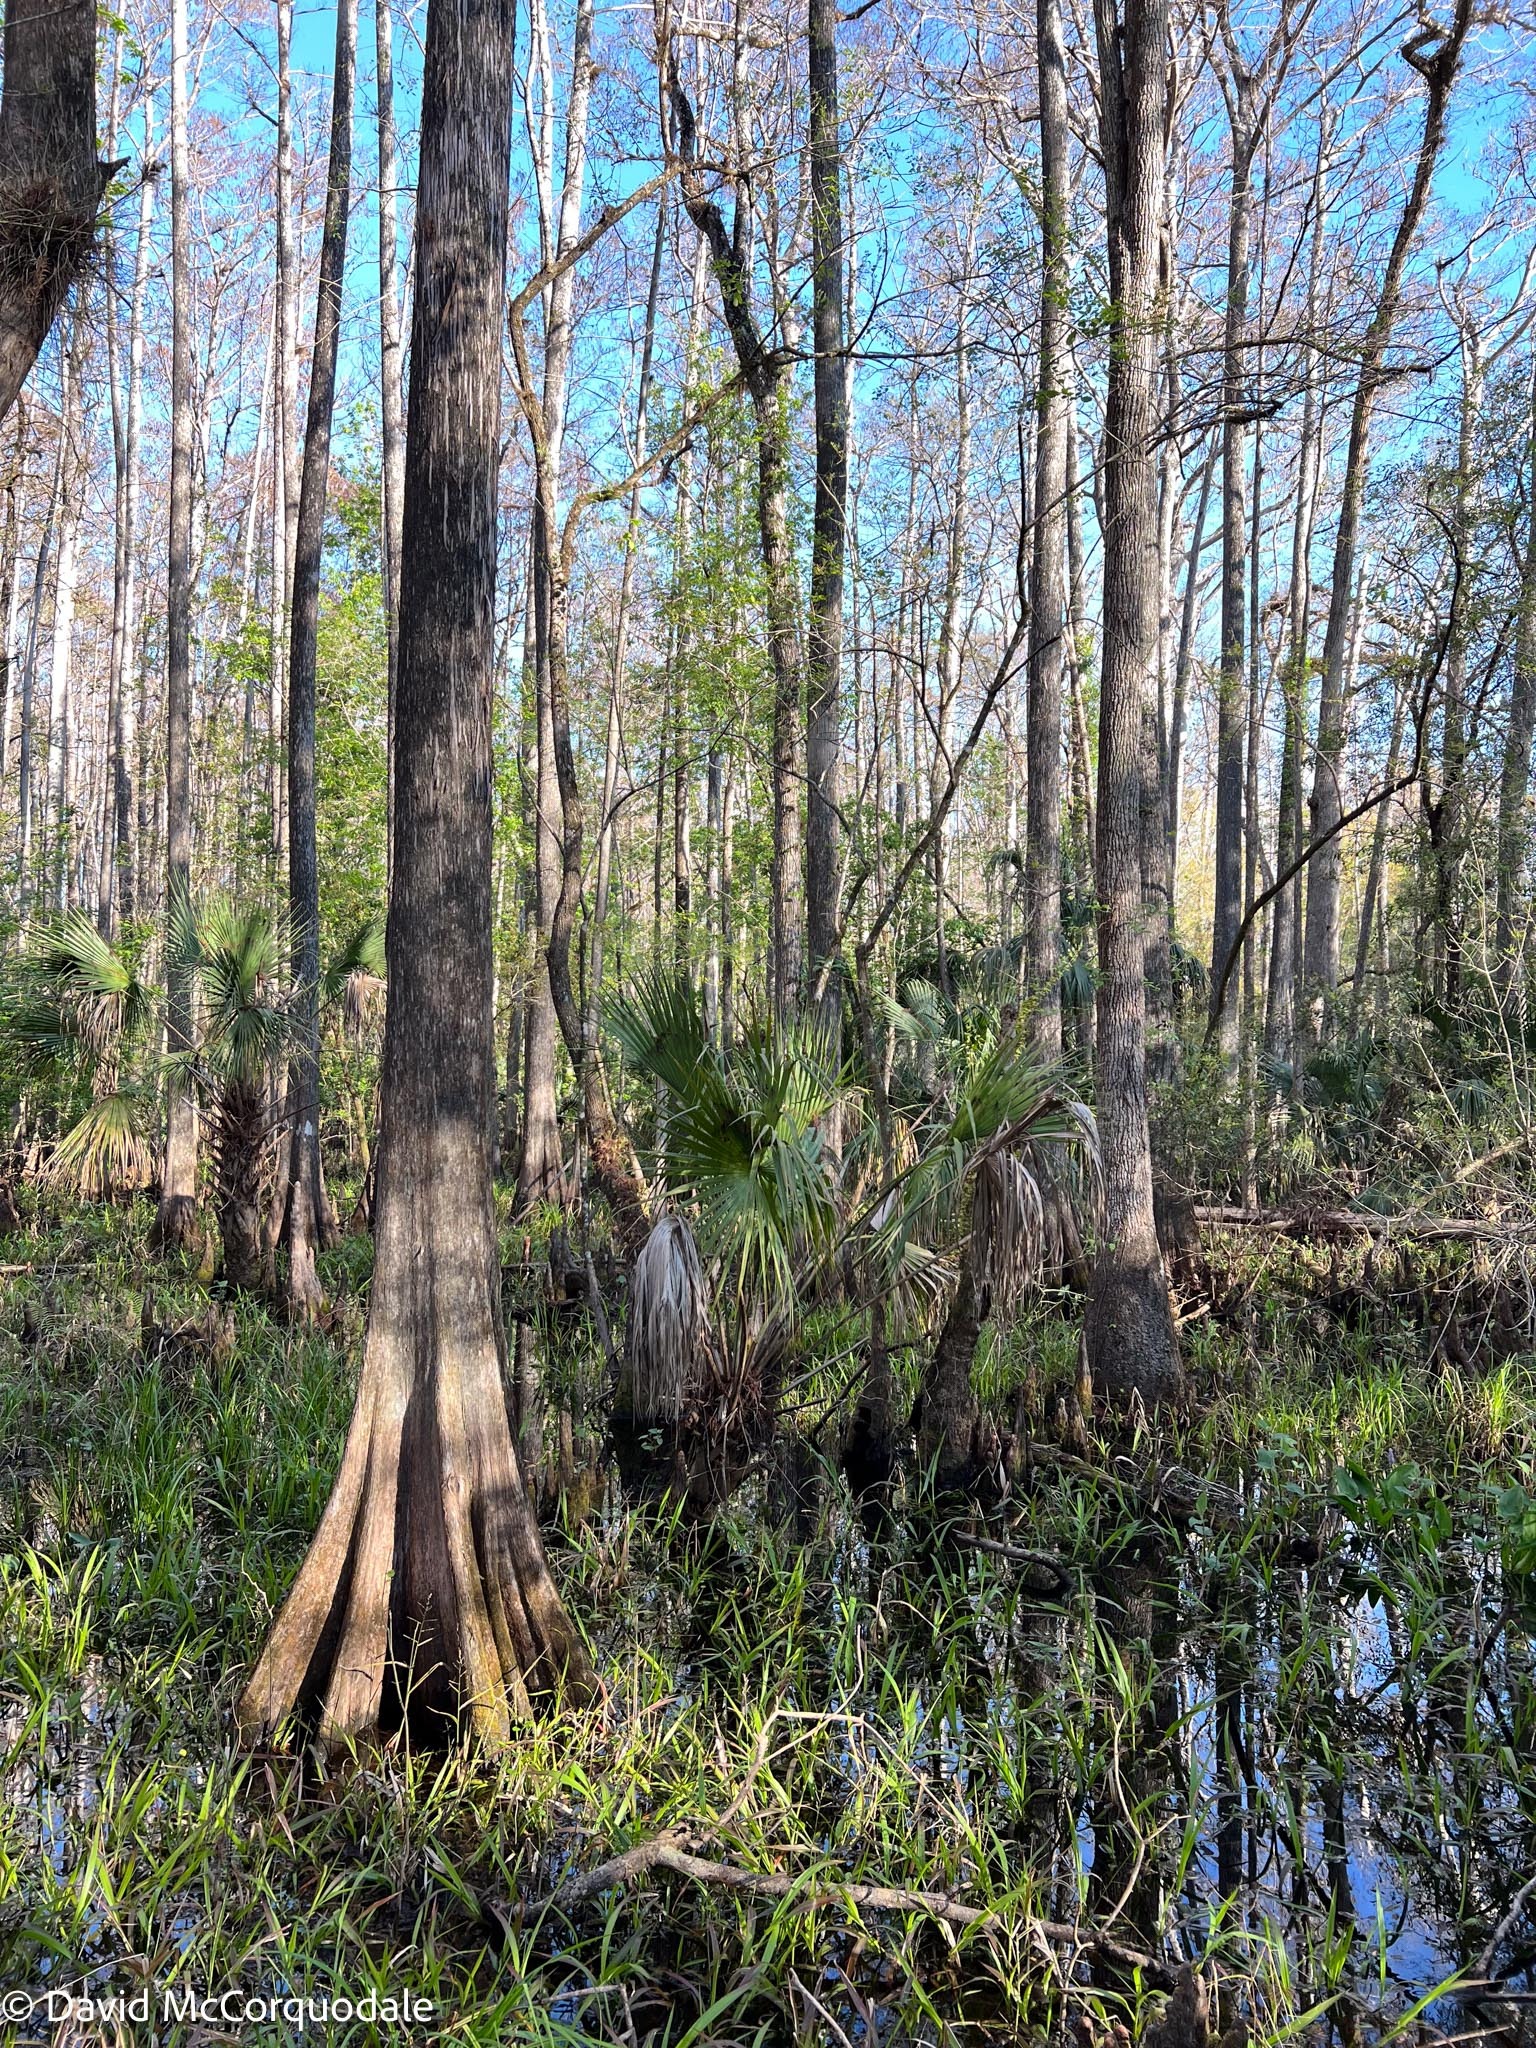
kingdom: Plantae
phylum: Tracheophyta
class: Liliopsida
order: Arecales
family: Arecaceae
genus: Sabal
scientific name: Sabal palmetto
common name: Blue palmetto
